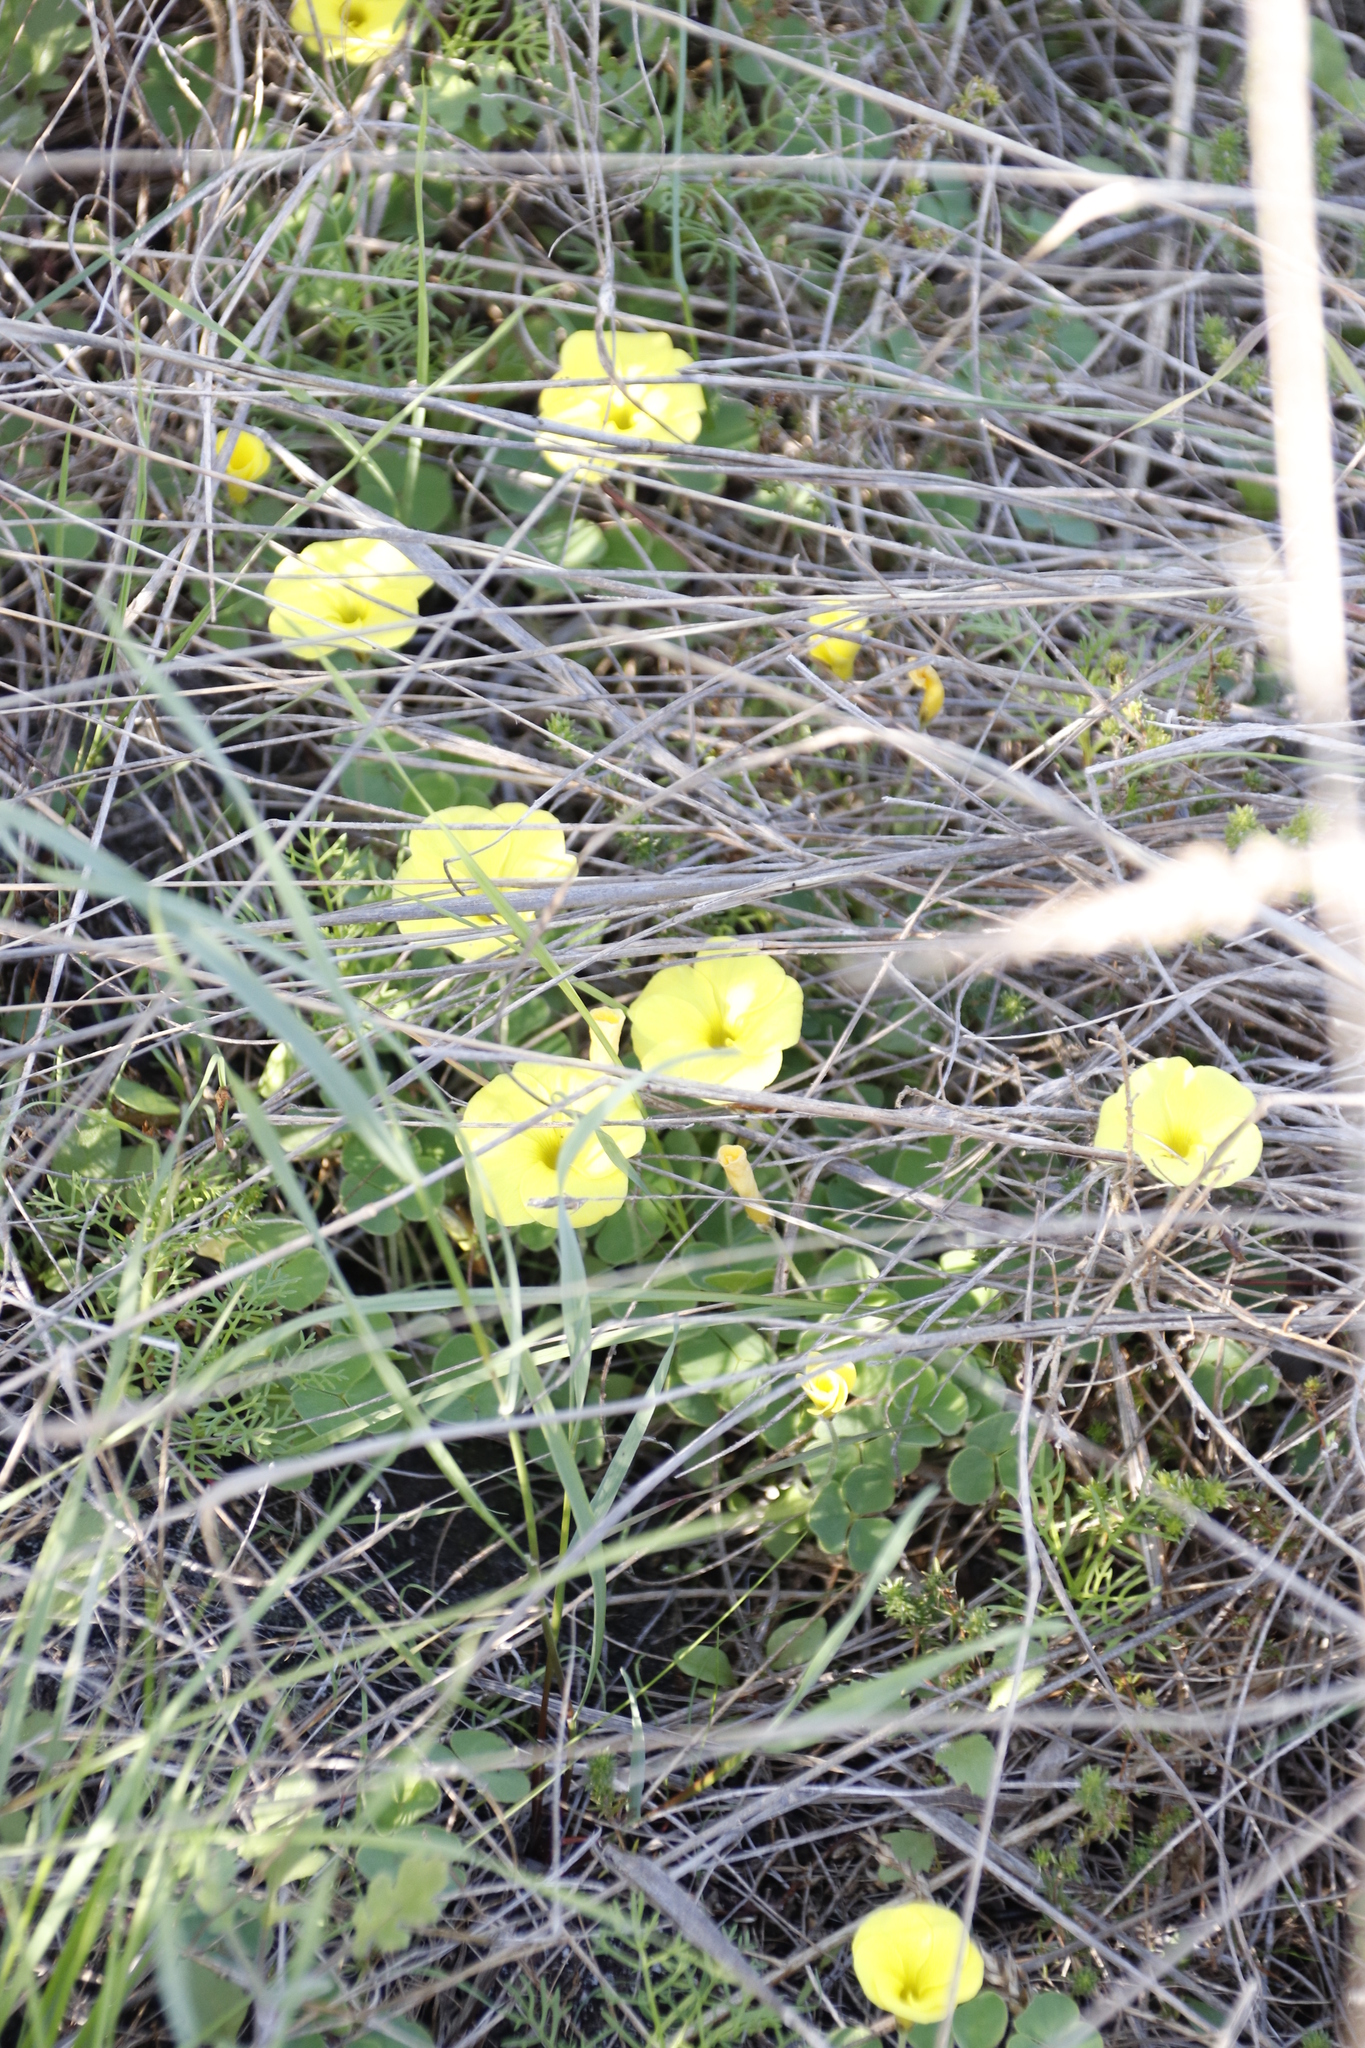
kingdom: Plantae
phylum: Tracheophyta
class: Magnoliopsida
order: Oxalidales
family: Oxalidaceae
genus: Oxalis
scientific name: Oxalis luteola
